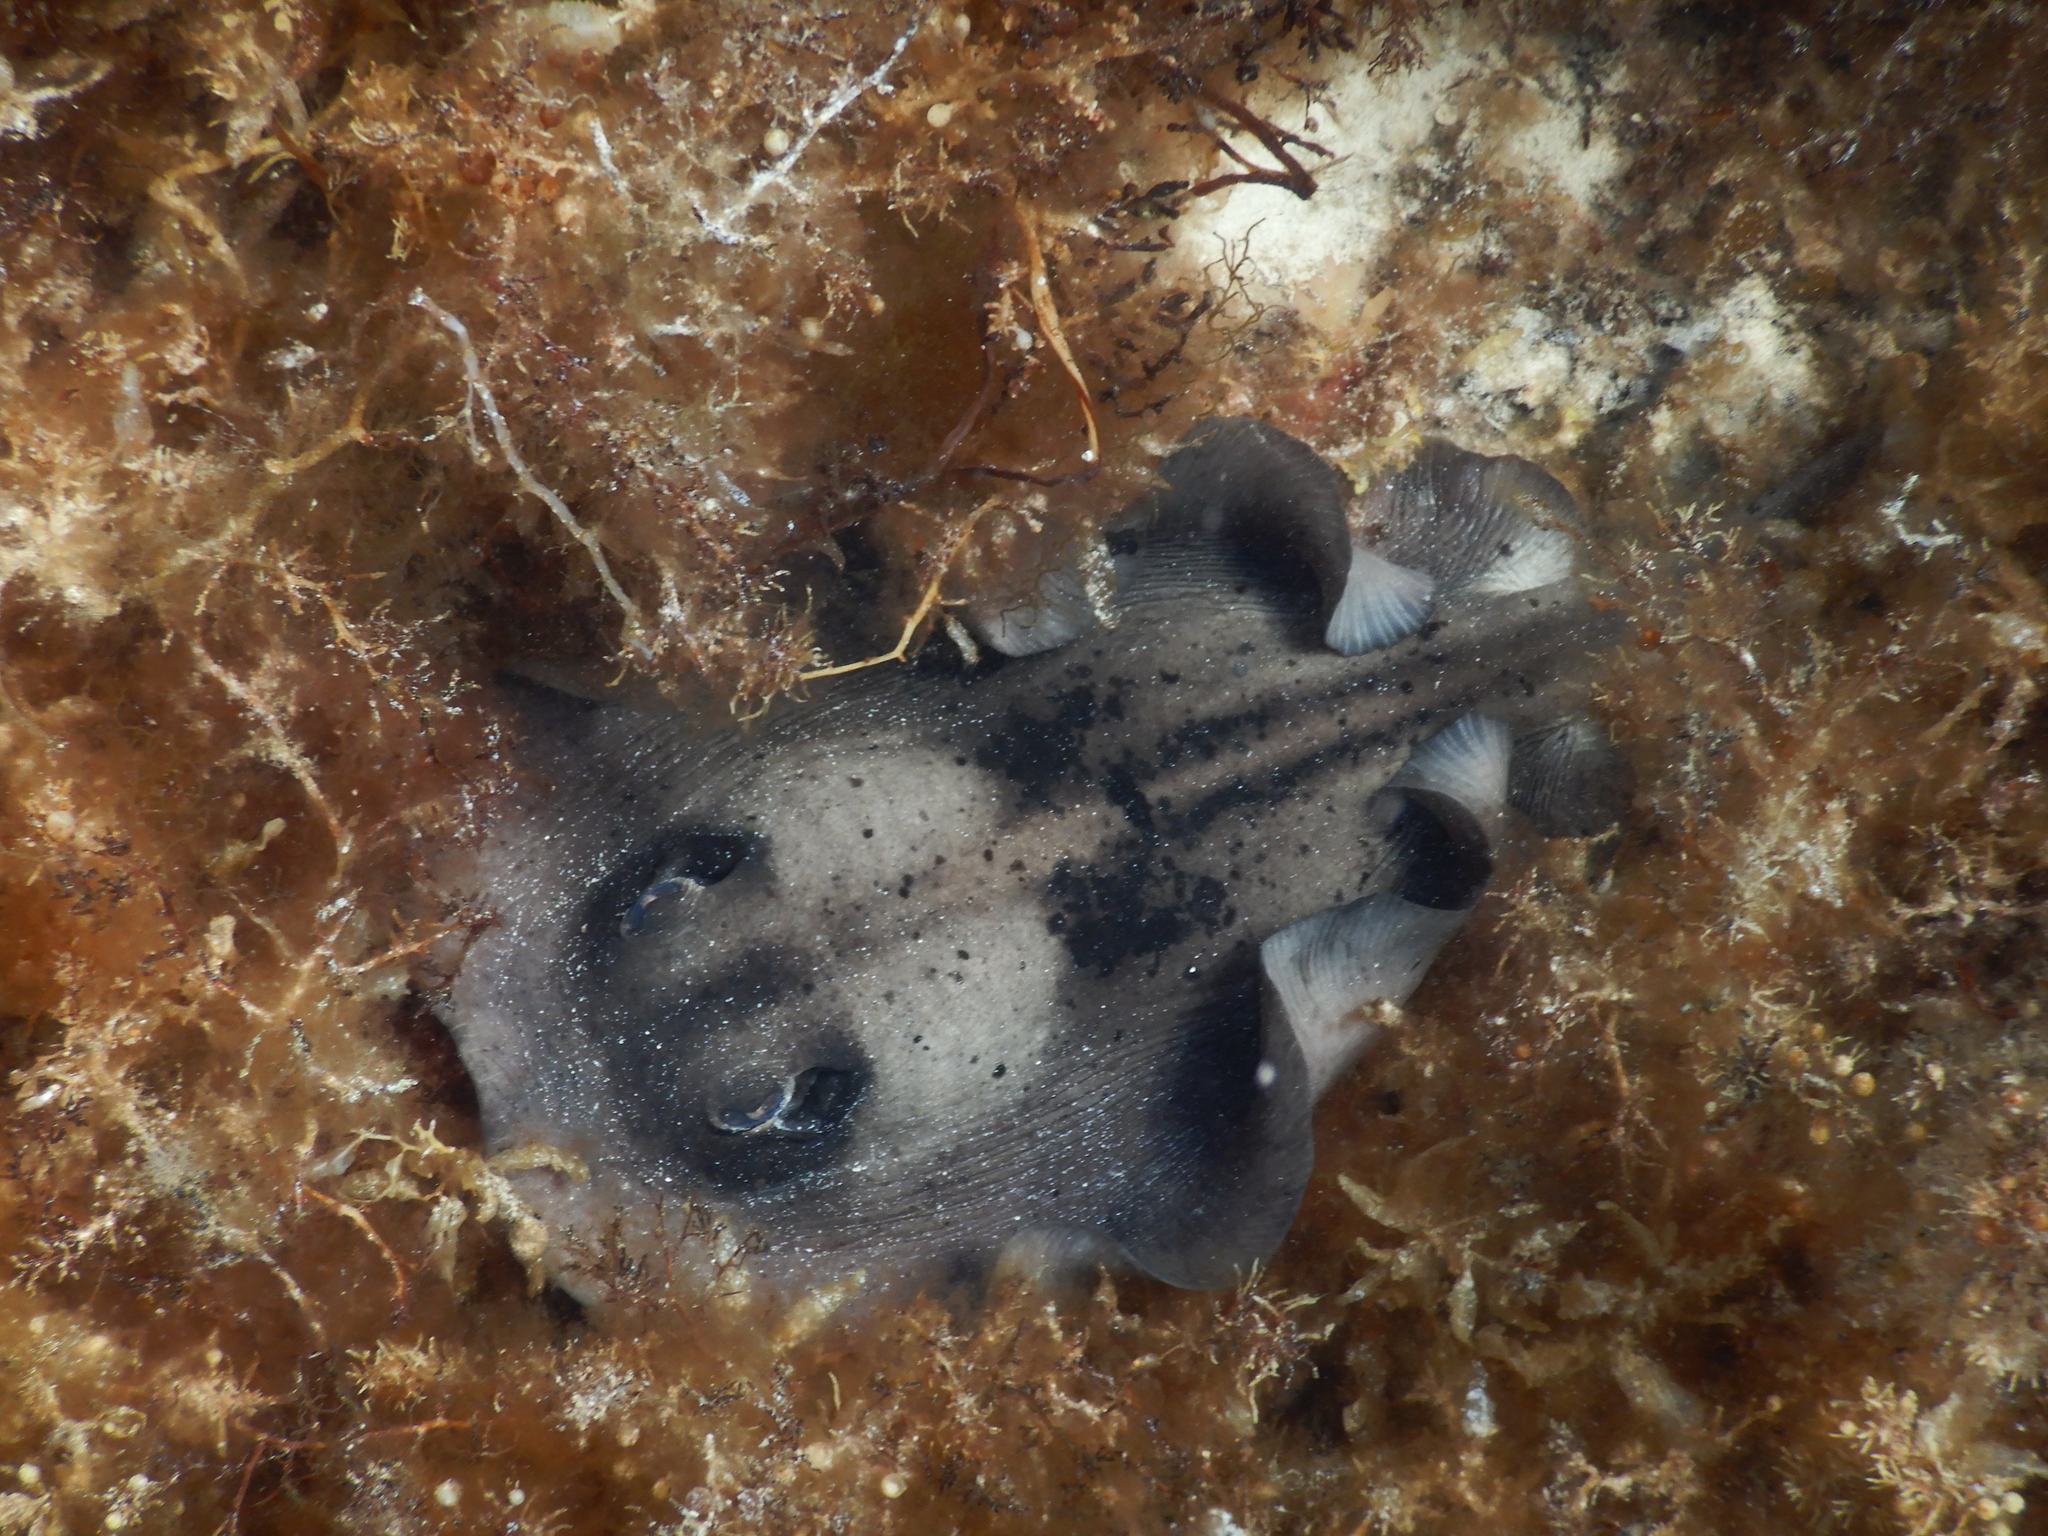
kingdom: Animalia
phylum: Chordata
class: Elasmobranchii
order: Myliobatiformes
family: Urolophidae
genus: Trygonoptera
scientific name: Trygonoptera ovalis
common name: Striped stingaree
